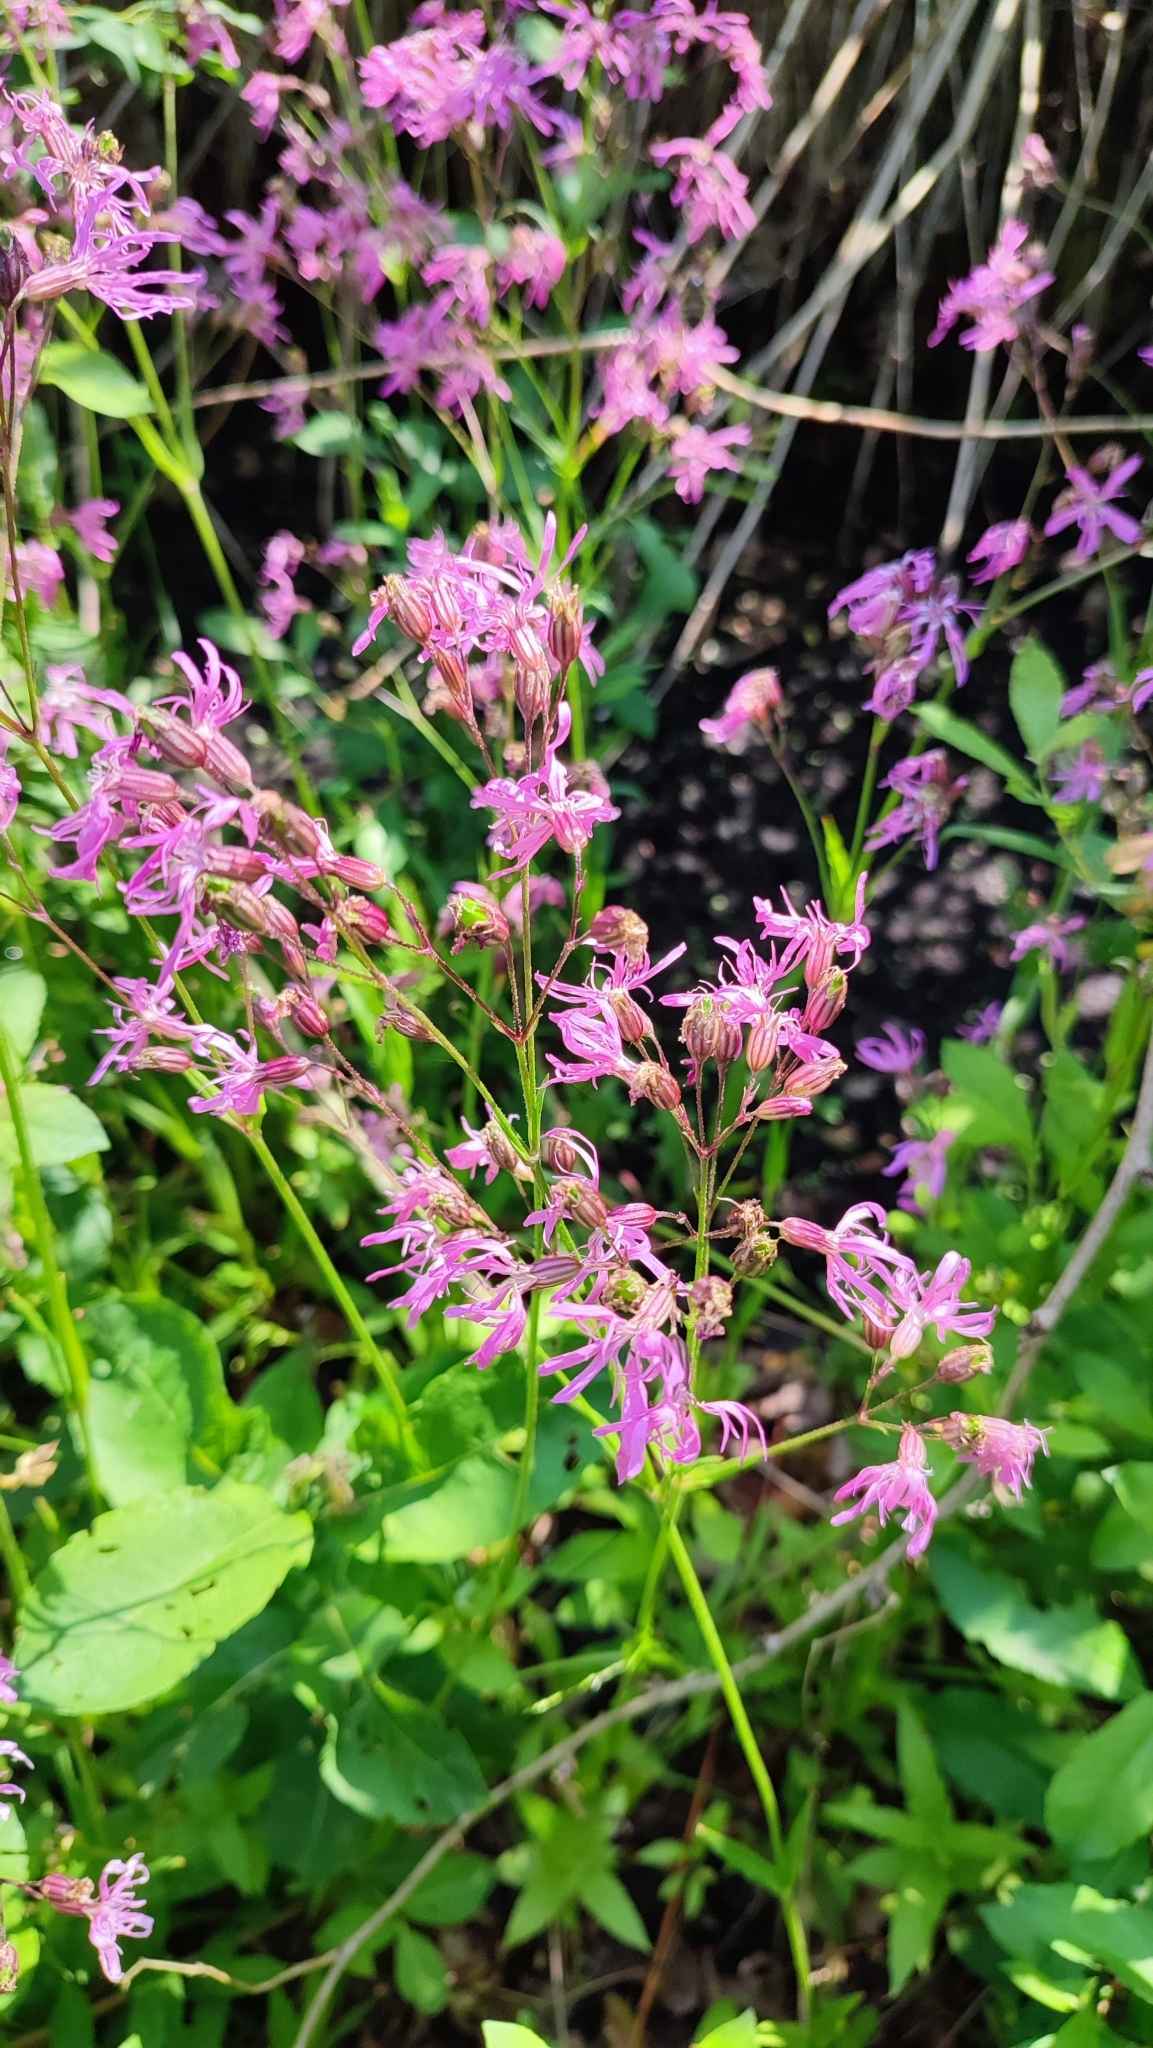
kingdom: Plantae
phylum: Tracheophyta
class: Magnoliopsida
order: Caryophyllales
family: Caryophyllaceae
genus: Silene
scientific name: Silene flos-cuculi
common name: Ragged-robin
